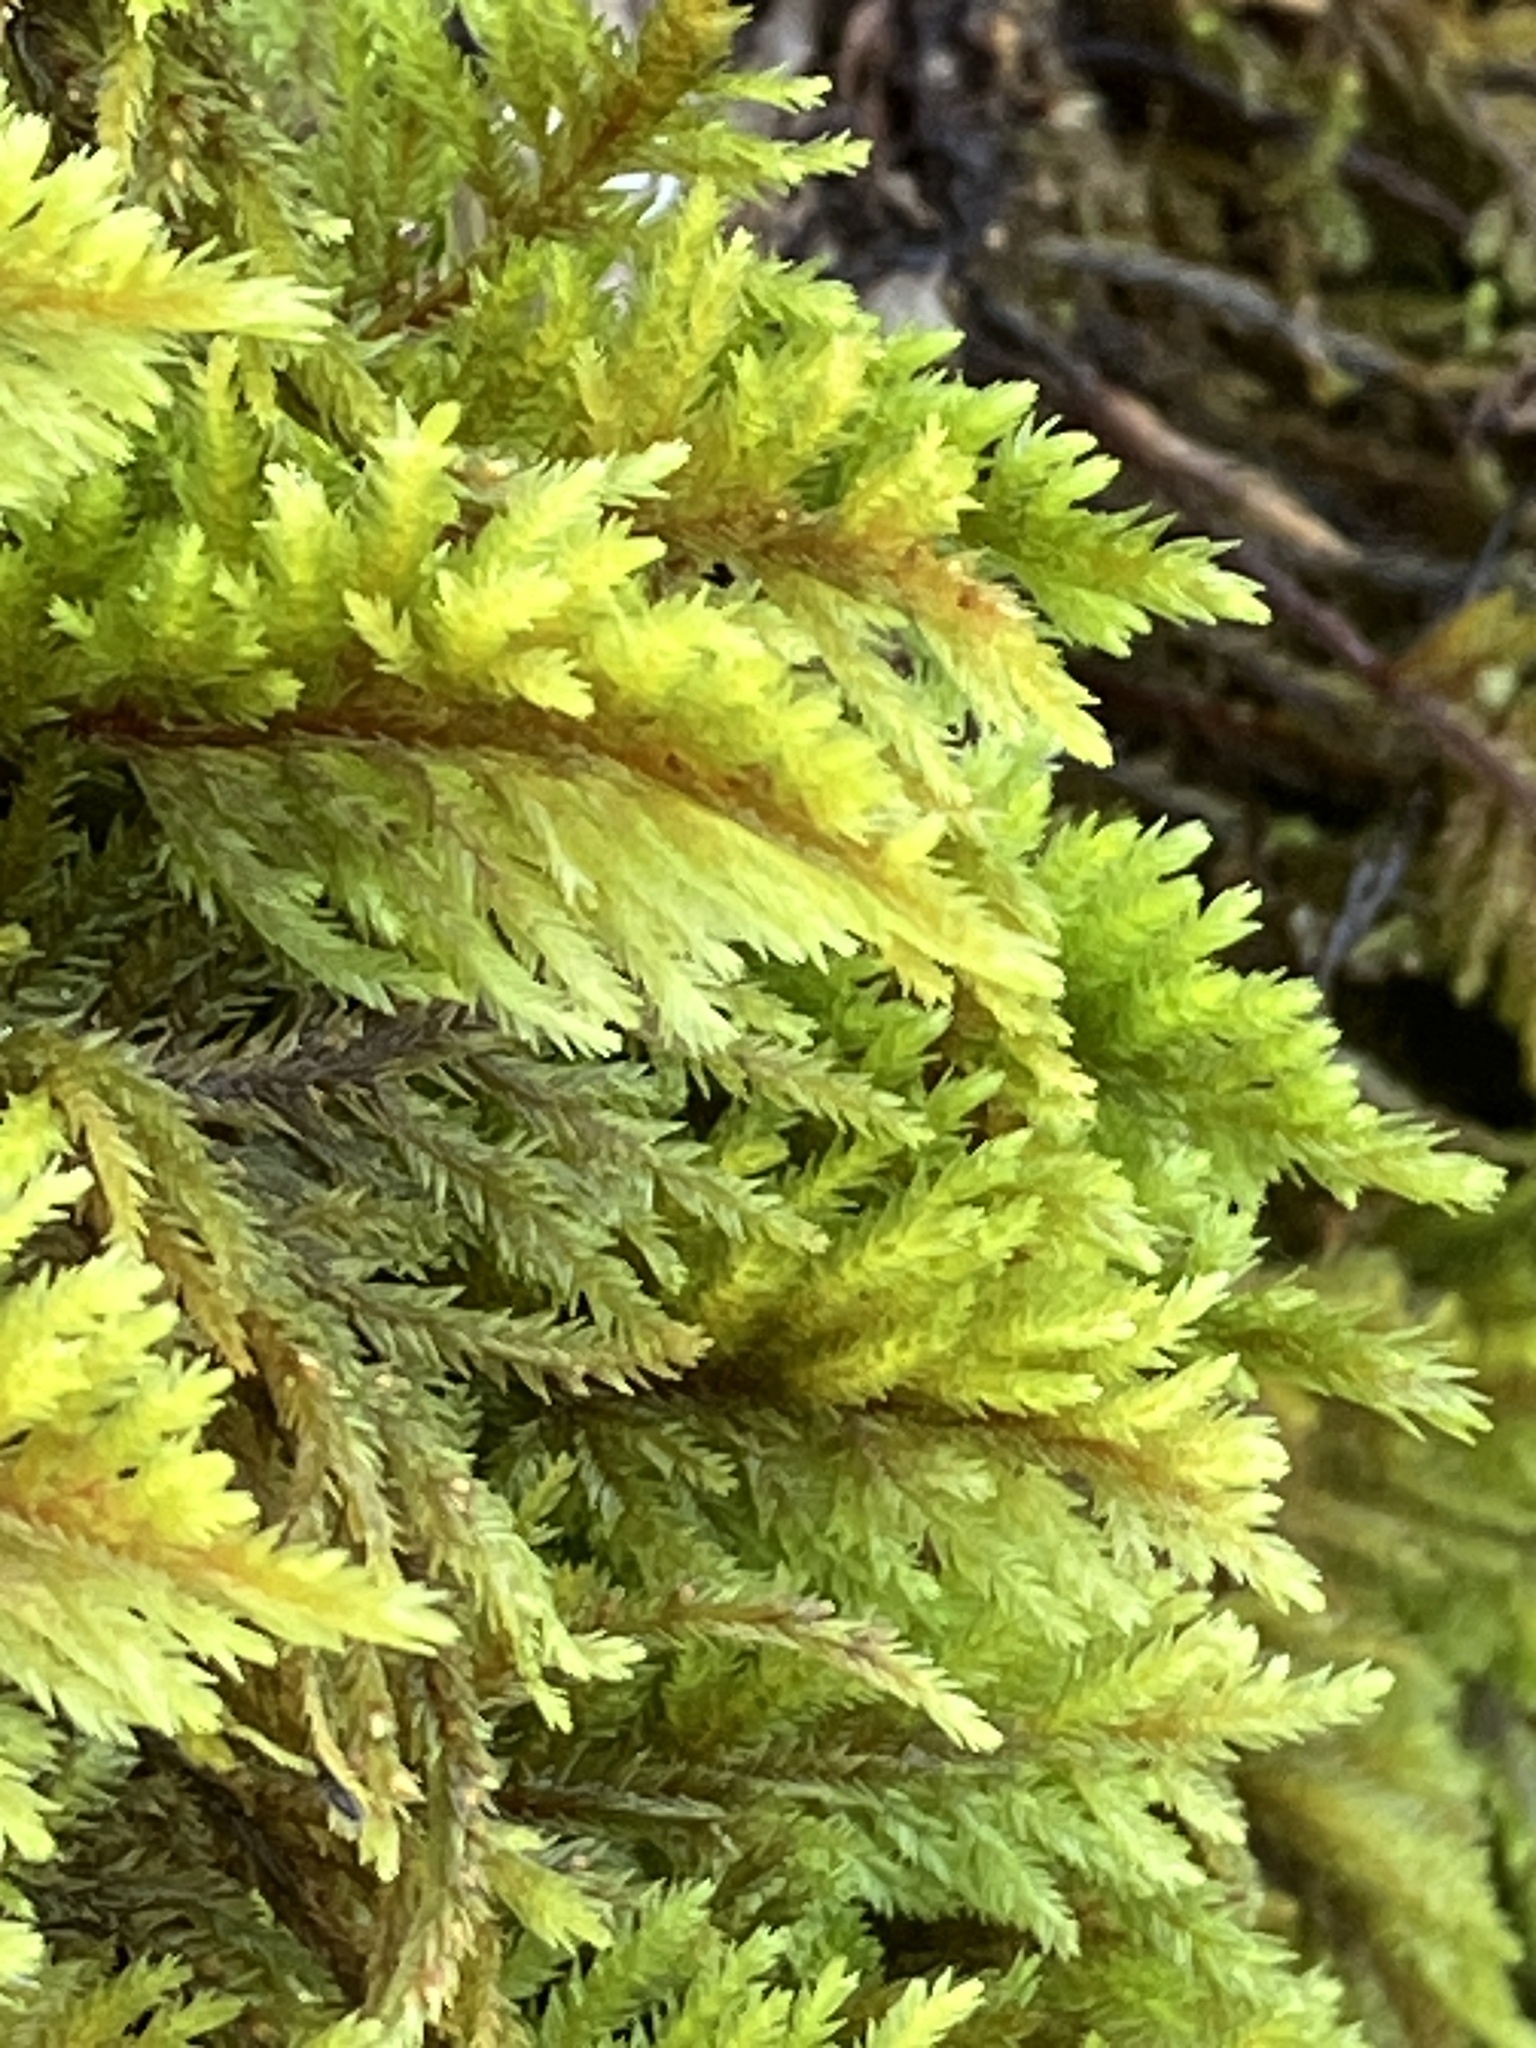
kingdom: Plantae
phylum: Bryophyta
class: Bryopsida
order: Hypnales
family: Cryphaeaceae
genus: Dendroalsia
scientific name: Dendroalsia abietina
